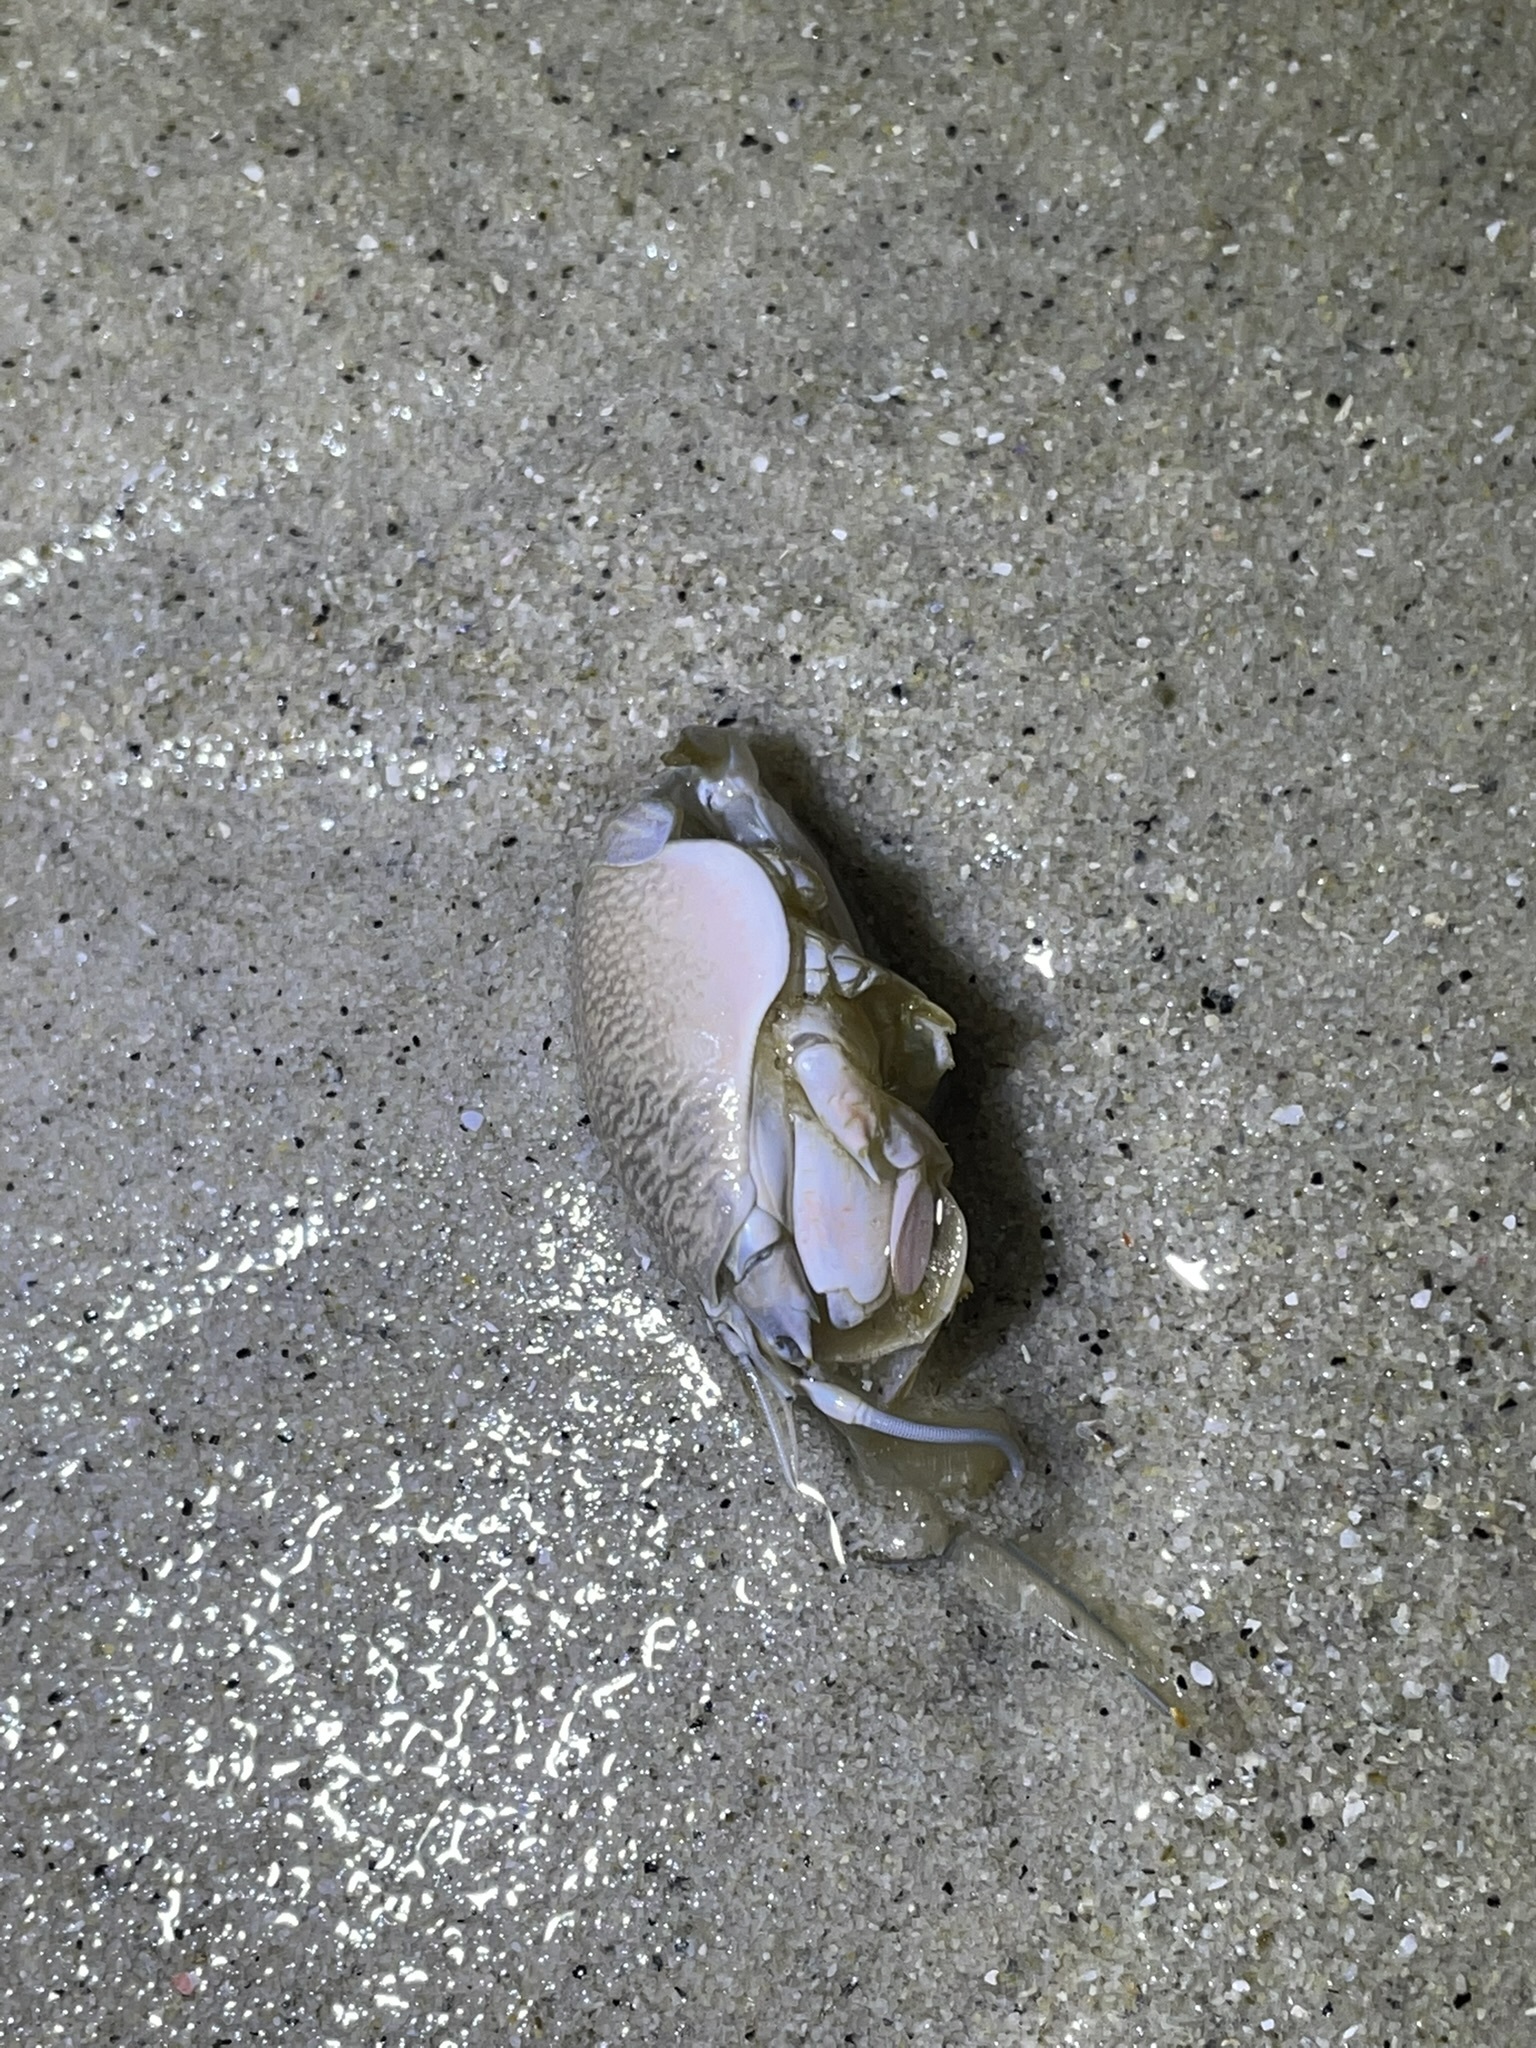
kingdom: Animalia
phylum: Arthropoda
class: Malacostraca
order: Decapoda
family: Hippidae
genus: Emerita
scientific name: Emerita analoga
